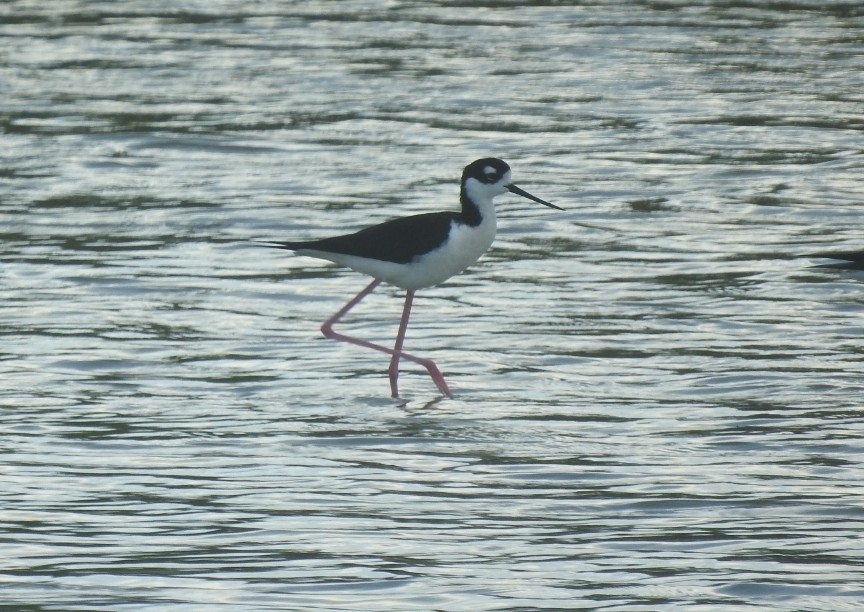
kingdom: Animalia
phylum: Chordata
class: Aves
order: Charadriiformes
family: Recurvirostridae
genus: Himantopus
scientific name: Himantopus mexicanus
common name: Black-necked stilt
